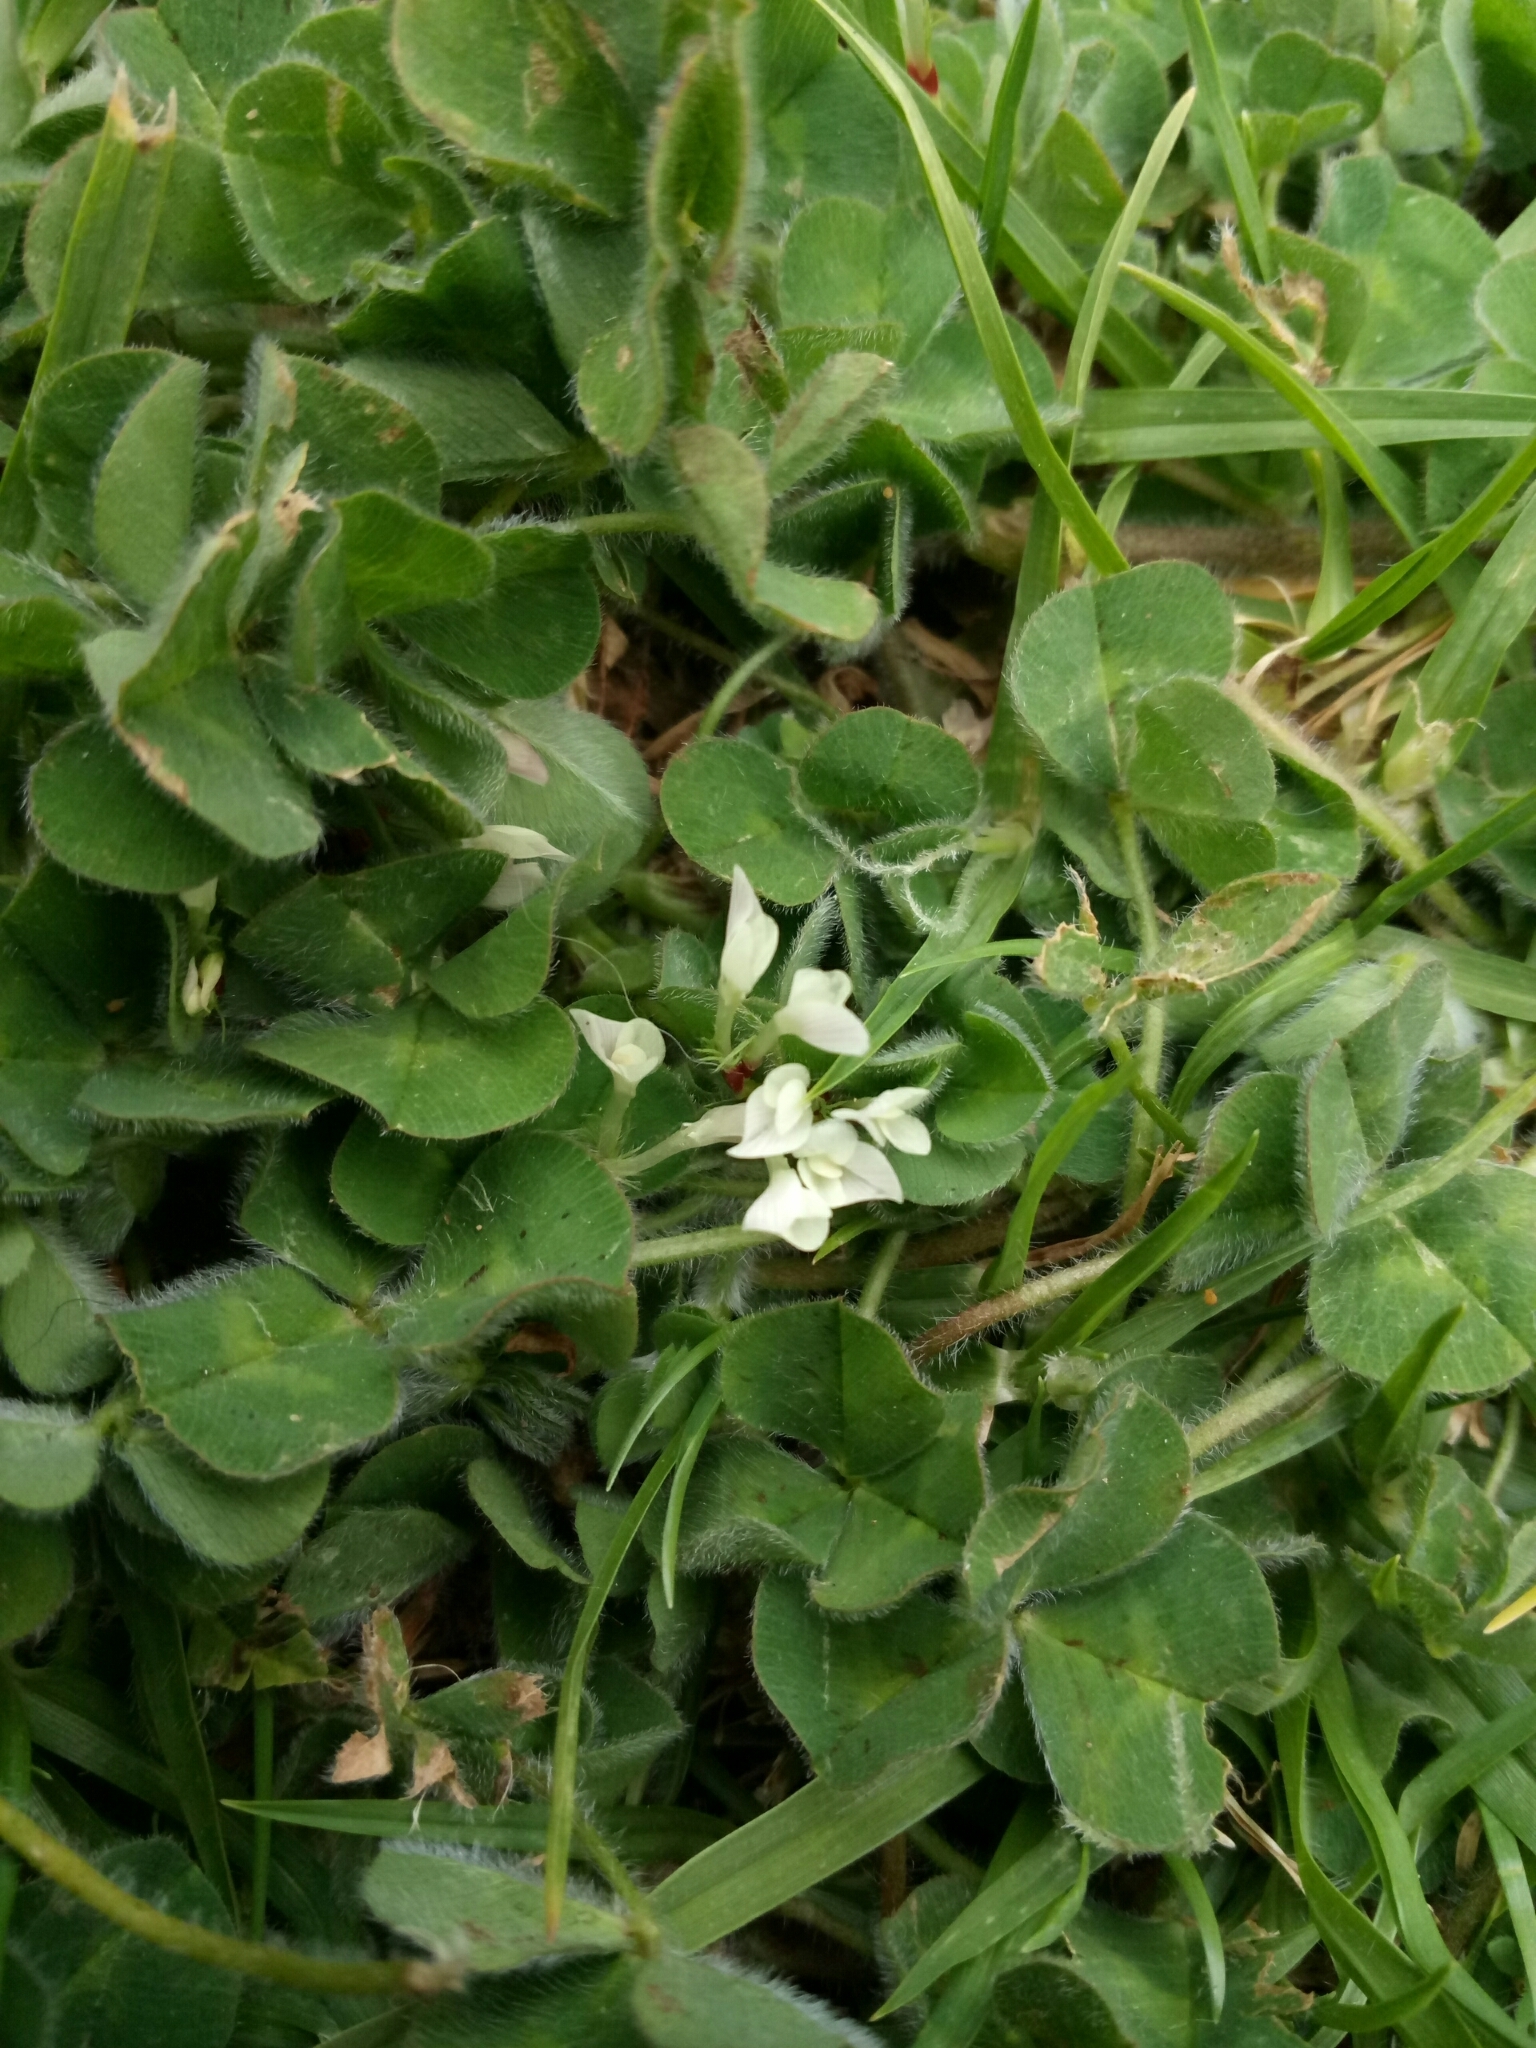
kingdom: Plantae
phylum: Tracheophyta
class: Magnoliopsida
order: Fabales
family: Fabaceae
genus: Trifolium
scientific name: Trifolium subterraneum
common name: Subterranean clover
